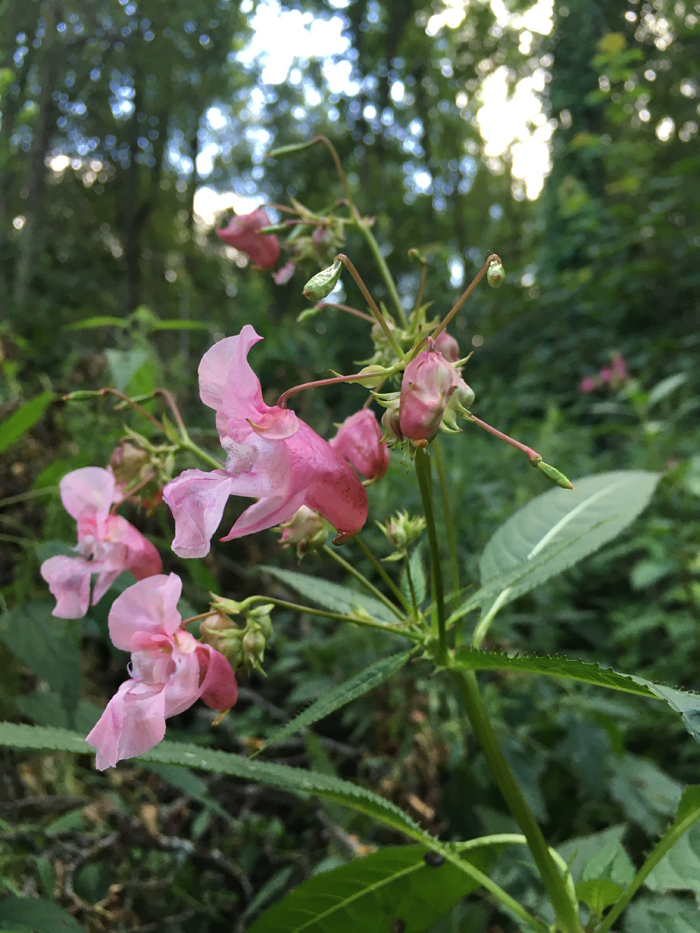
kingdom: Plantae
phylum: Tracheophyta
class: Magnoliopsida
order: Ericales
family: Balsaminaceae
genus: Impatiens
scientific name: Impatiens glandulifera
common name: Himalayan balsam
